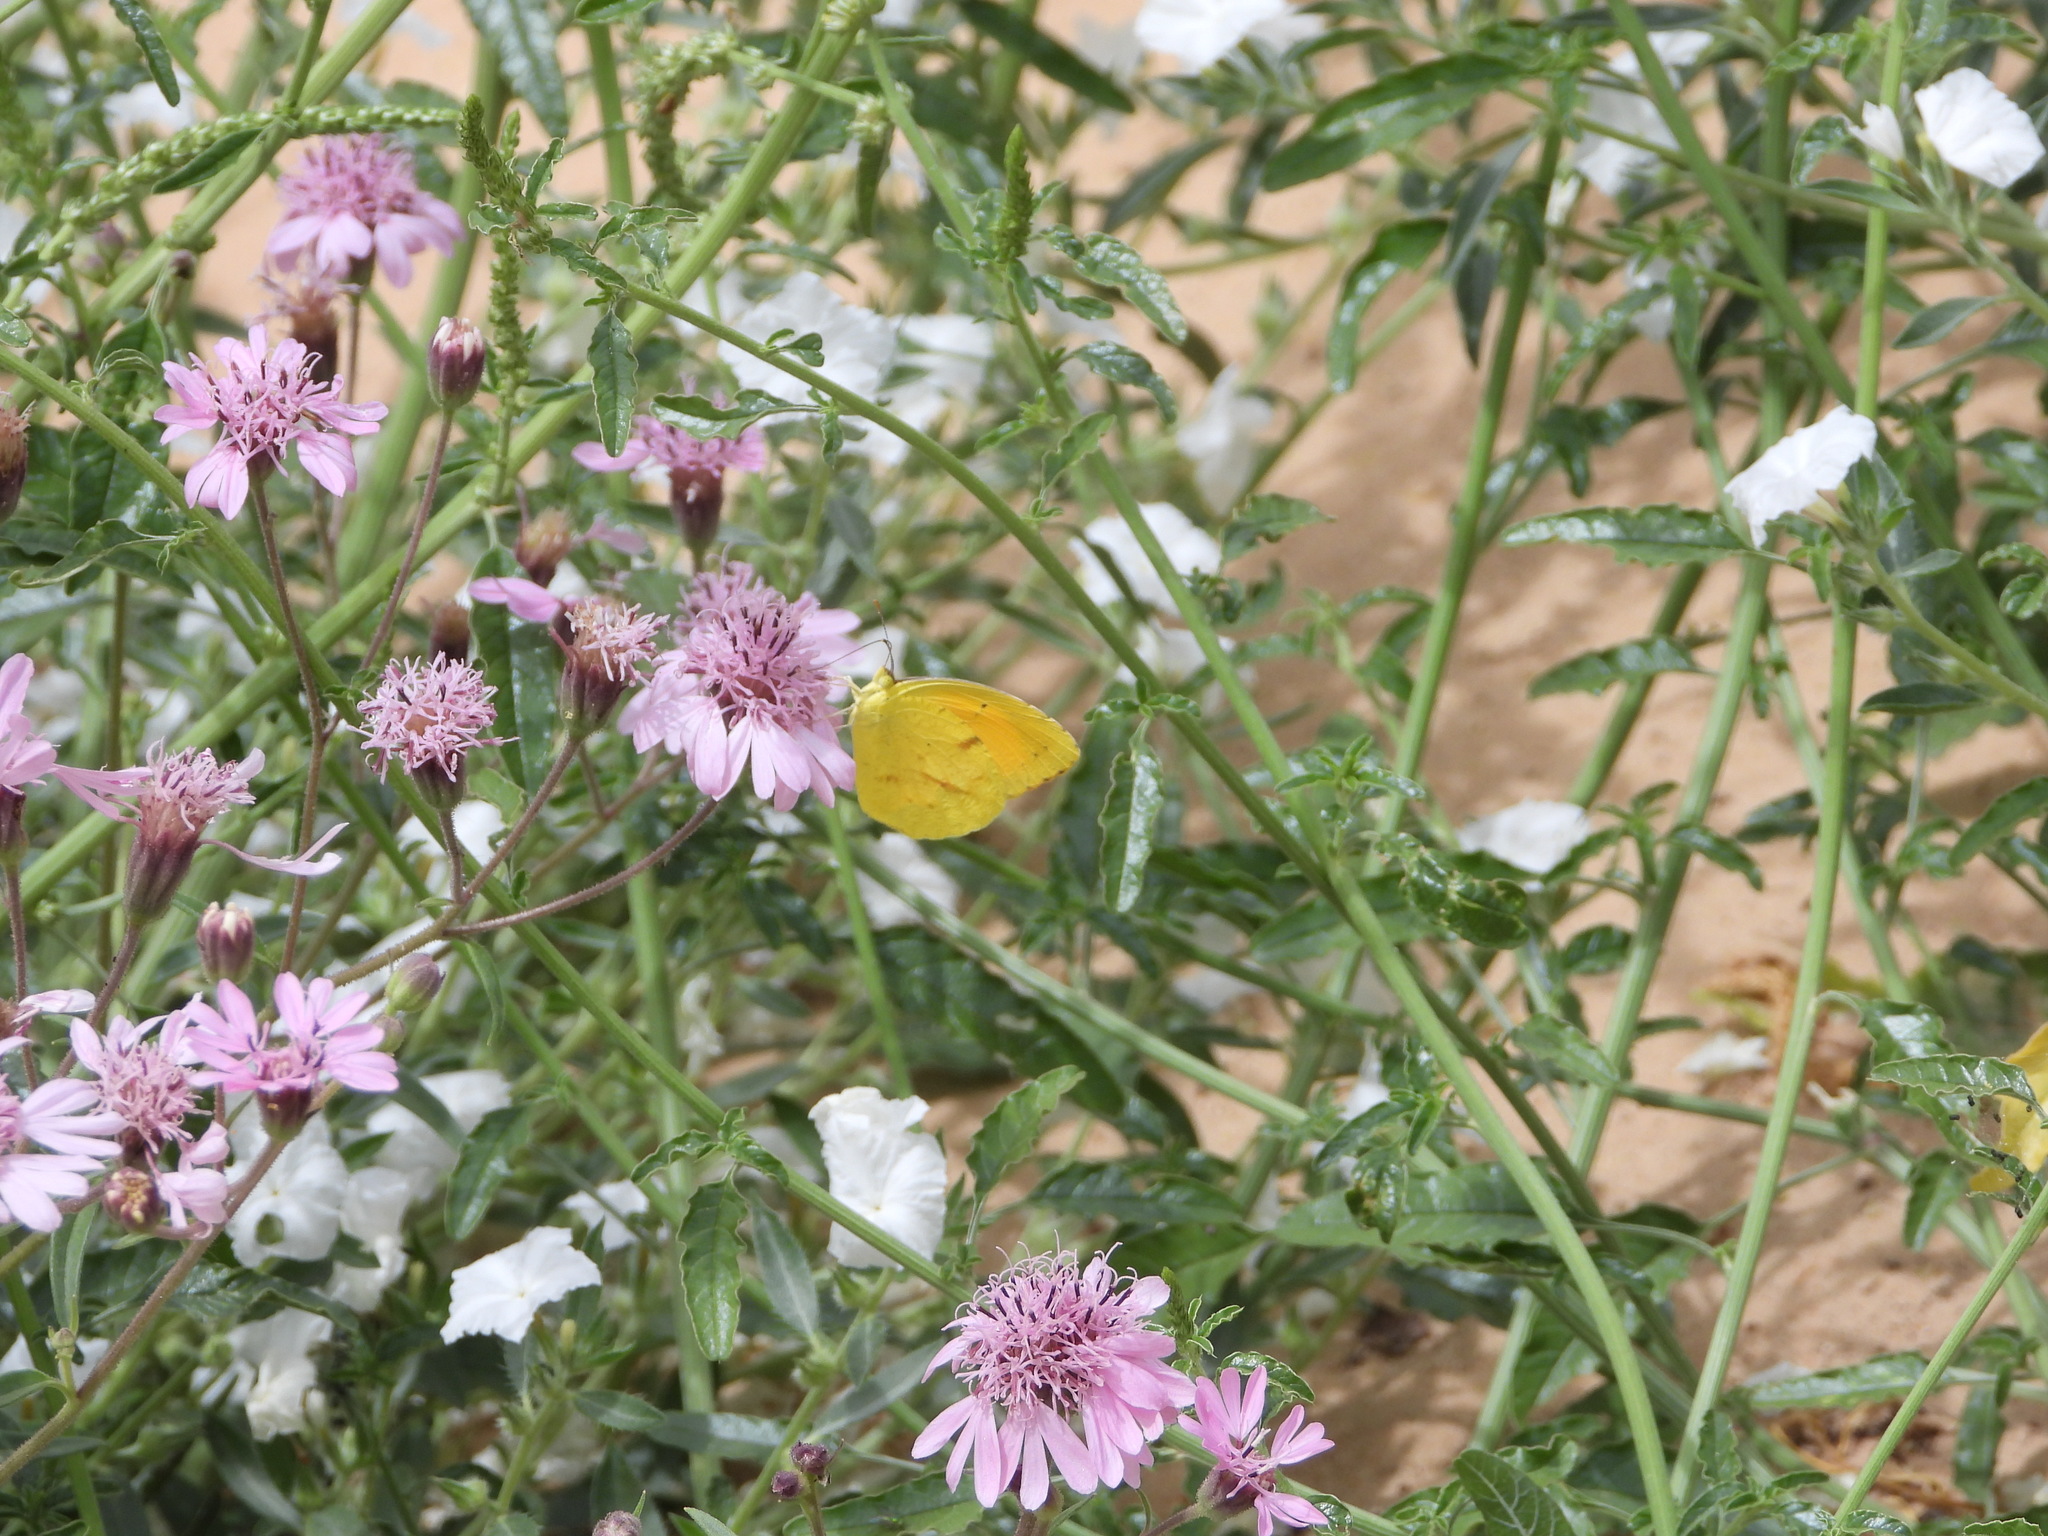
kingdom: Animalia
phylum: Arthropoda
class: Insecta
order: Lepidoptera
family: Pieridae
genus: Abaeis
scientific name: Abaeis nicippe
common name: Sleepy orange
